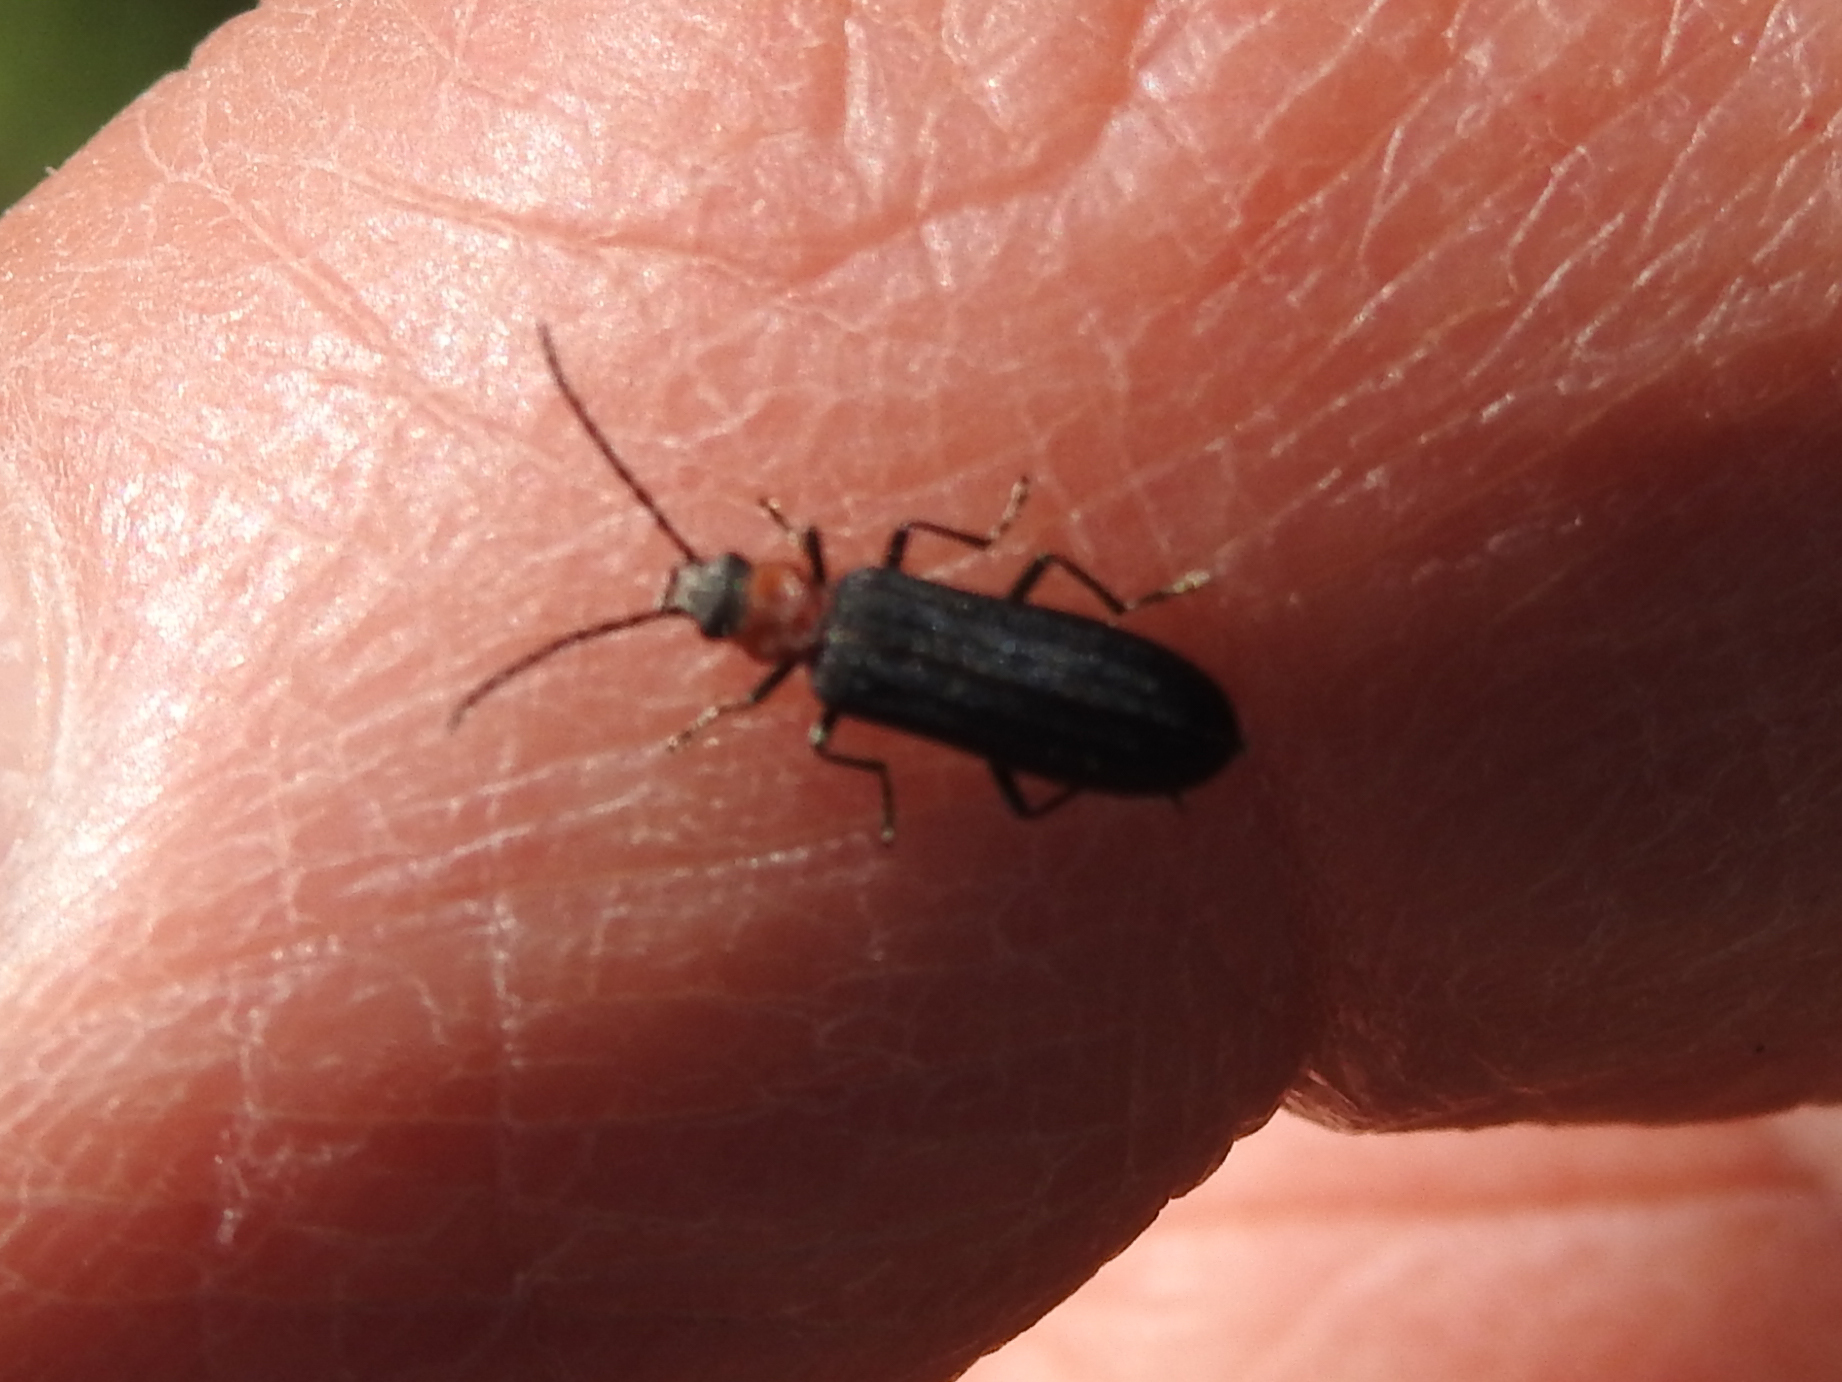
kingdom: Animalia
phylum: Arthropoda
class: Insecta
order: Coleoptera
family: Oedemeridae
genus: Ischnomera
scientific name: Ischnomera
